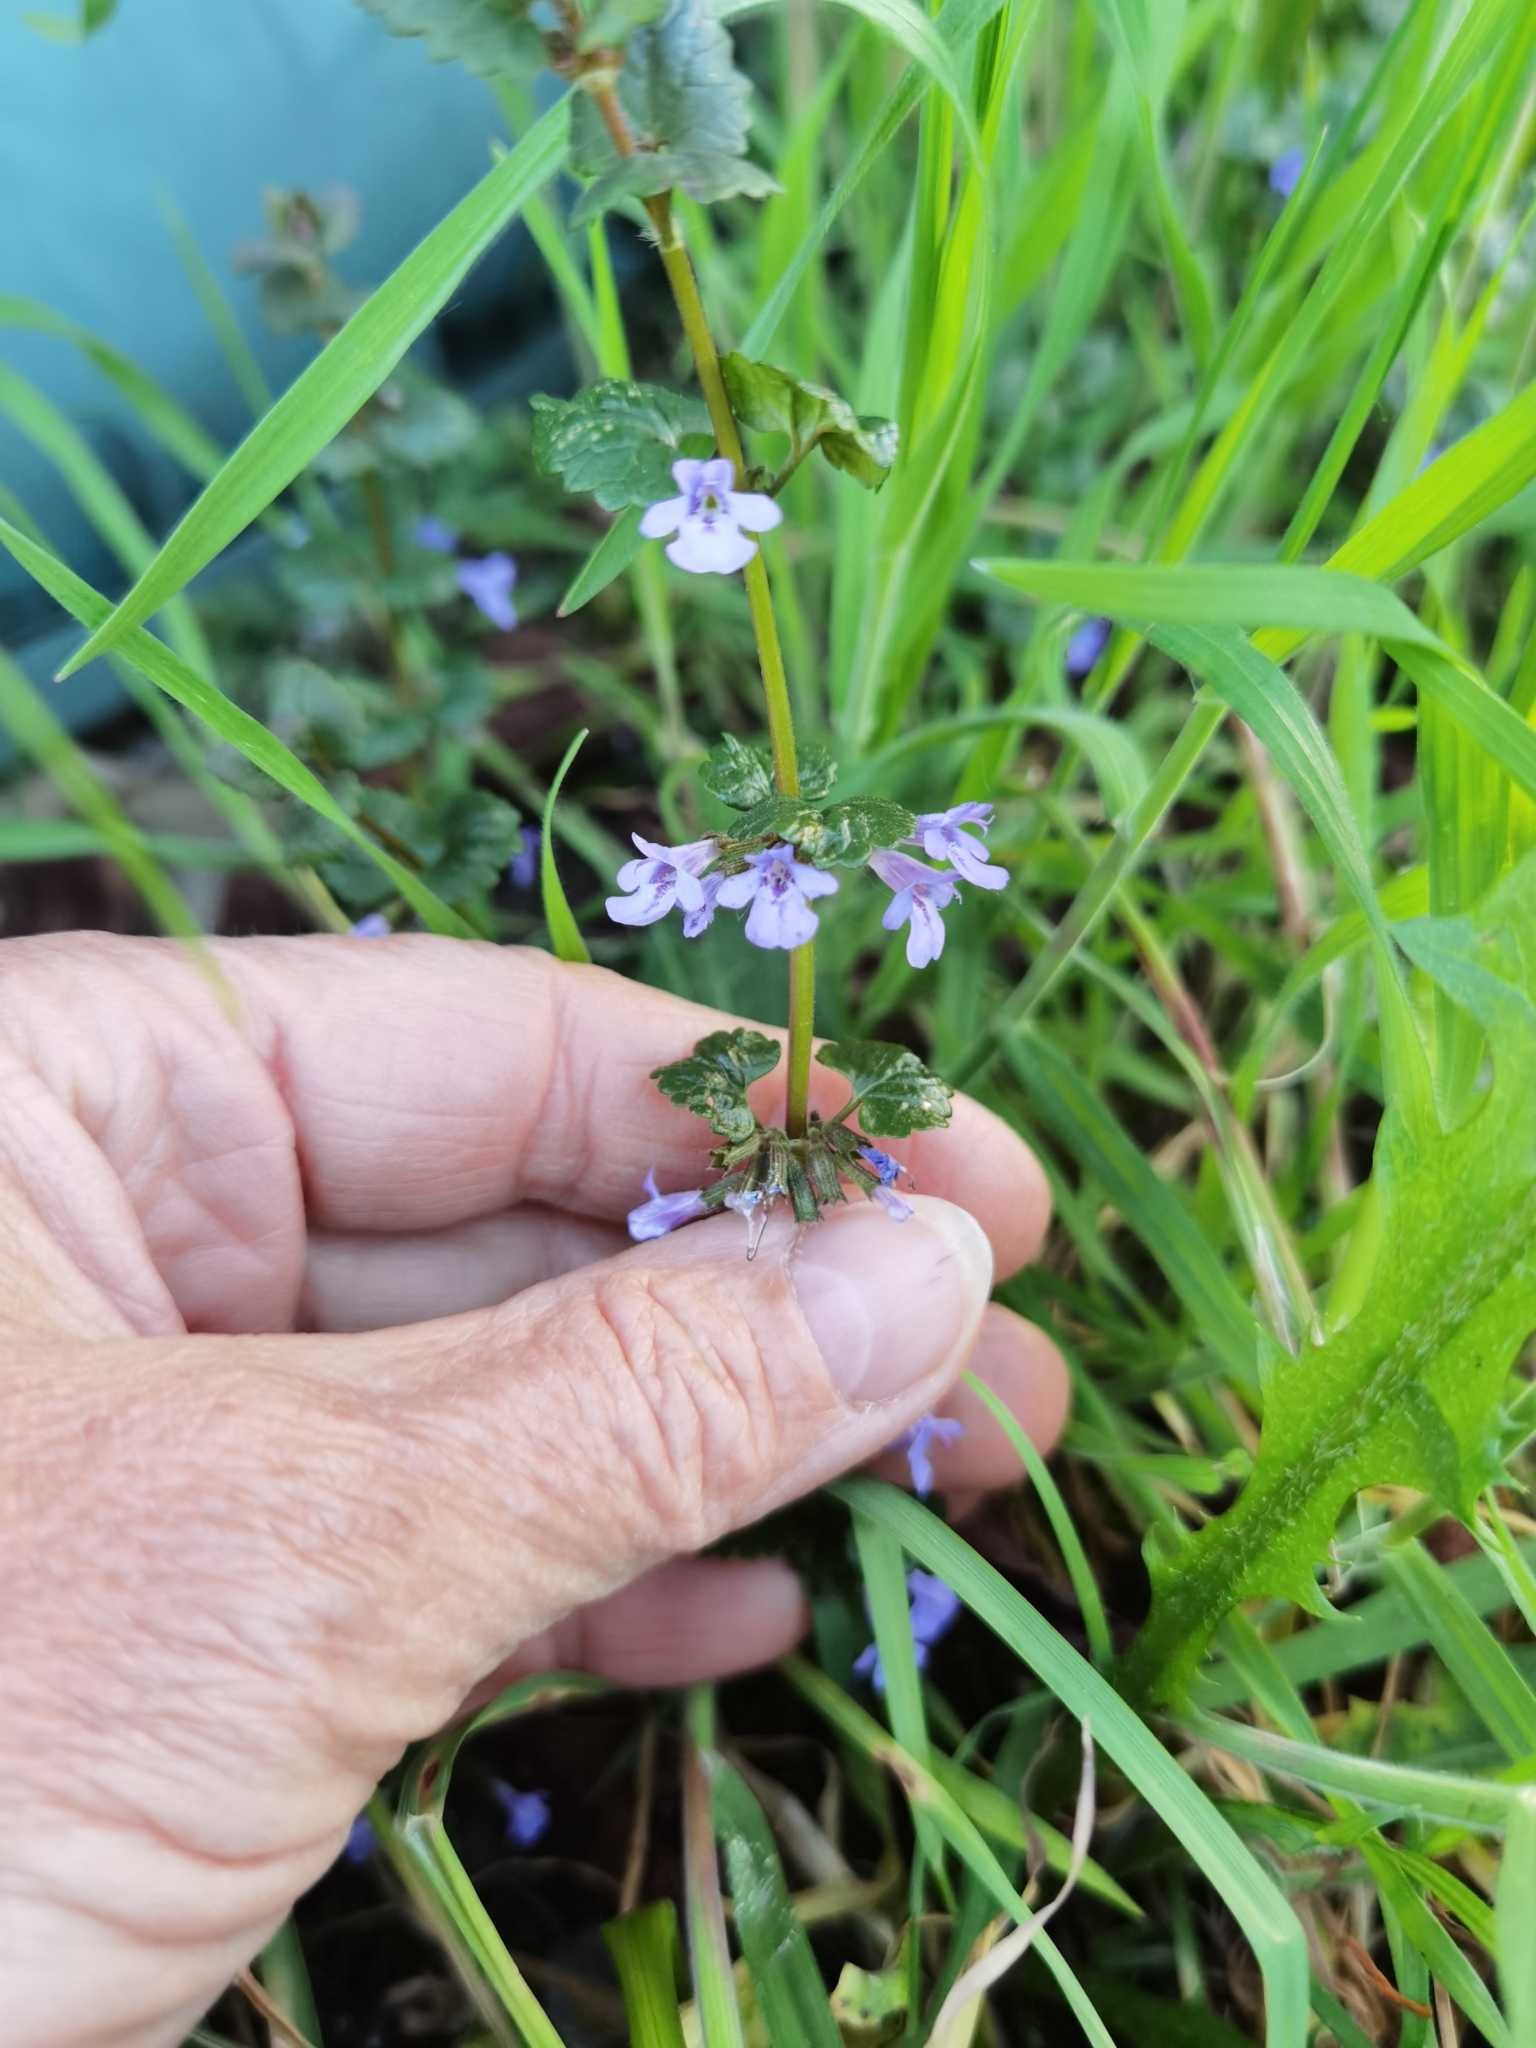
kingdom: Plantae
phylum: Tracheophyta
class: Magnoliopsida
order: Lamiales
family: Lamiaceae
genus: Glechoma
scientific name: Glechoma hederacea
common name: Ground ivy
